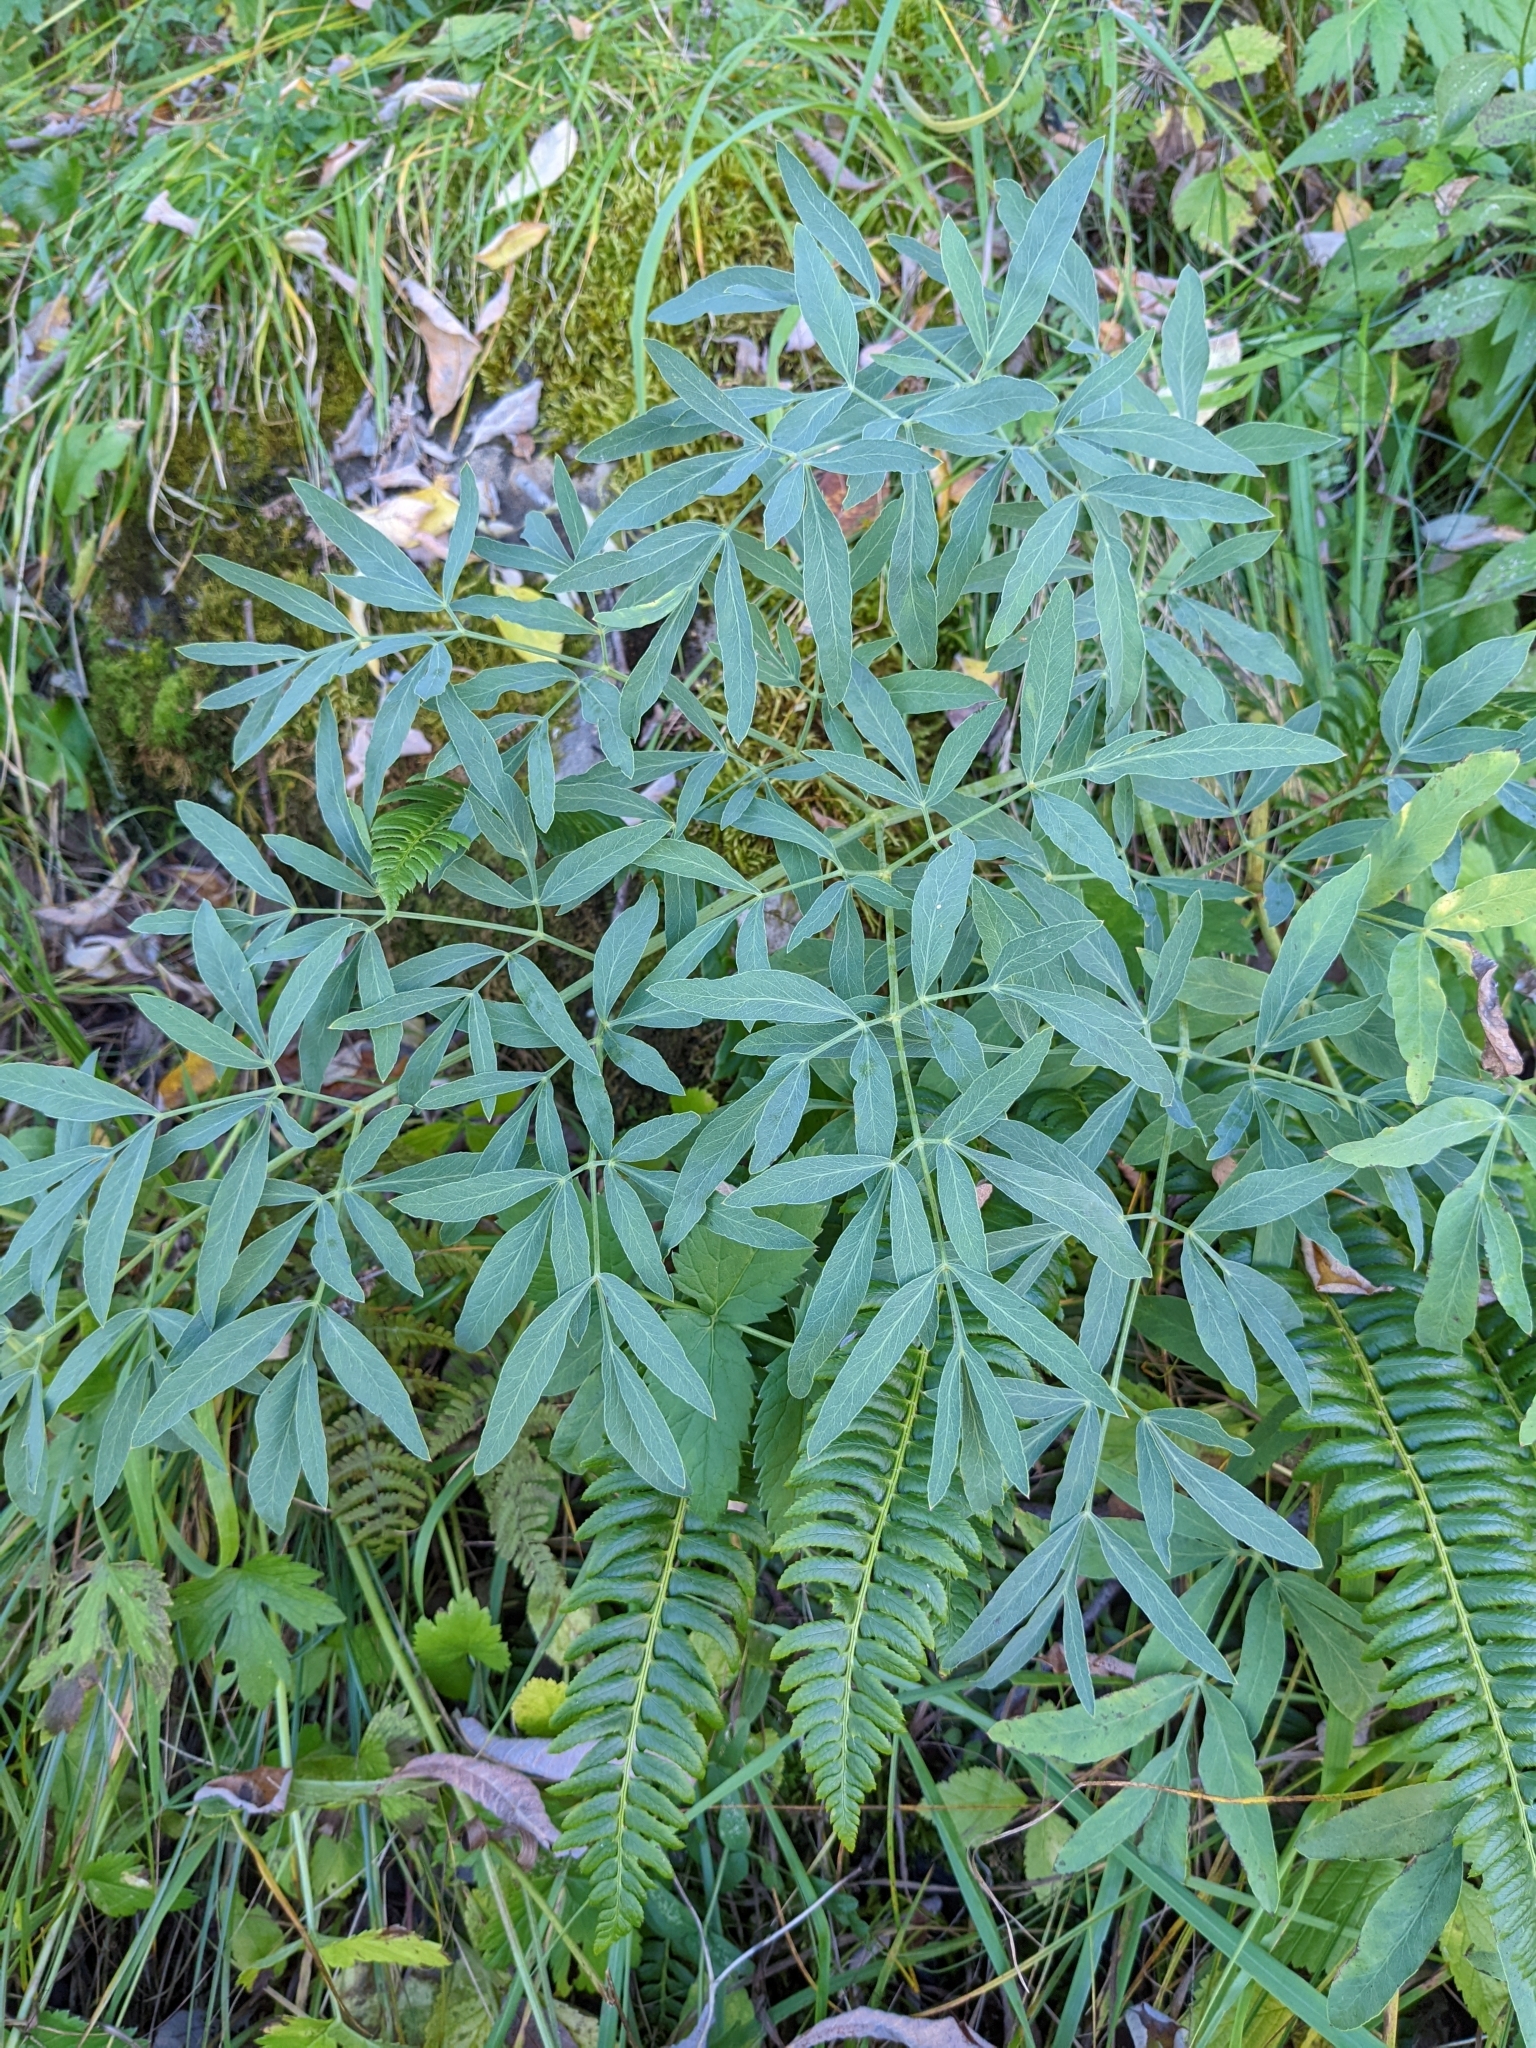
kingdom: Plantae
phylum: Tracheophyta
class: Magnoliopsida
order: Apiales
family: Apiaceae
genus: Siler
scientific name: Siler montanum
